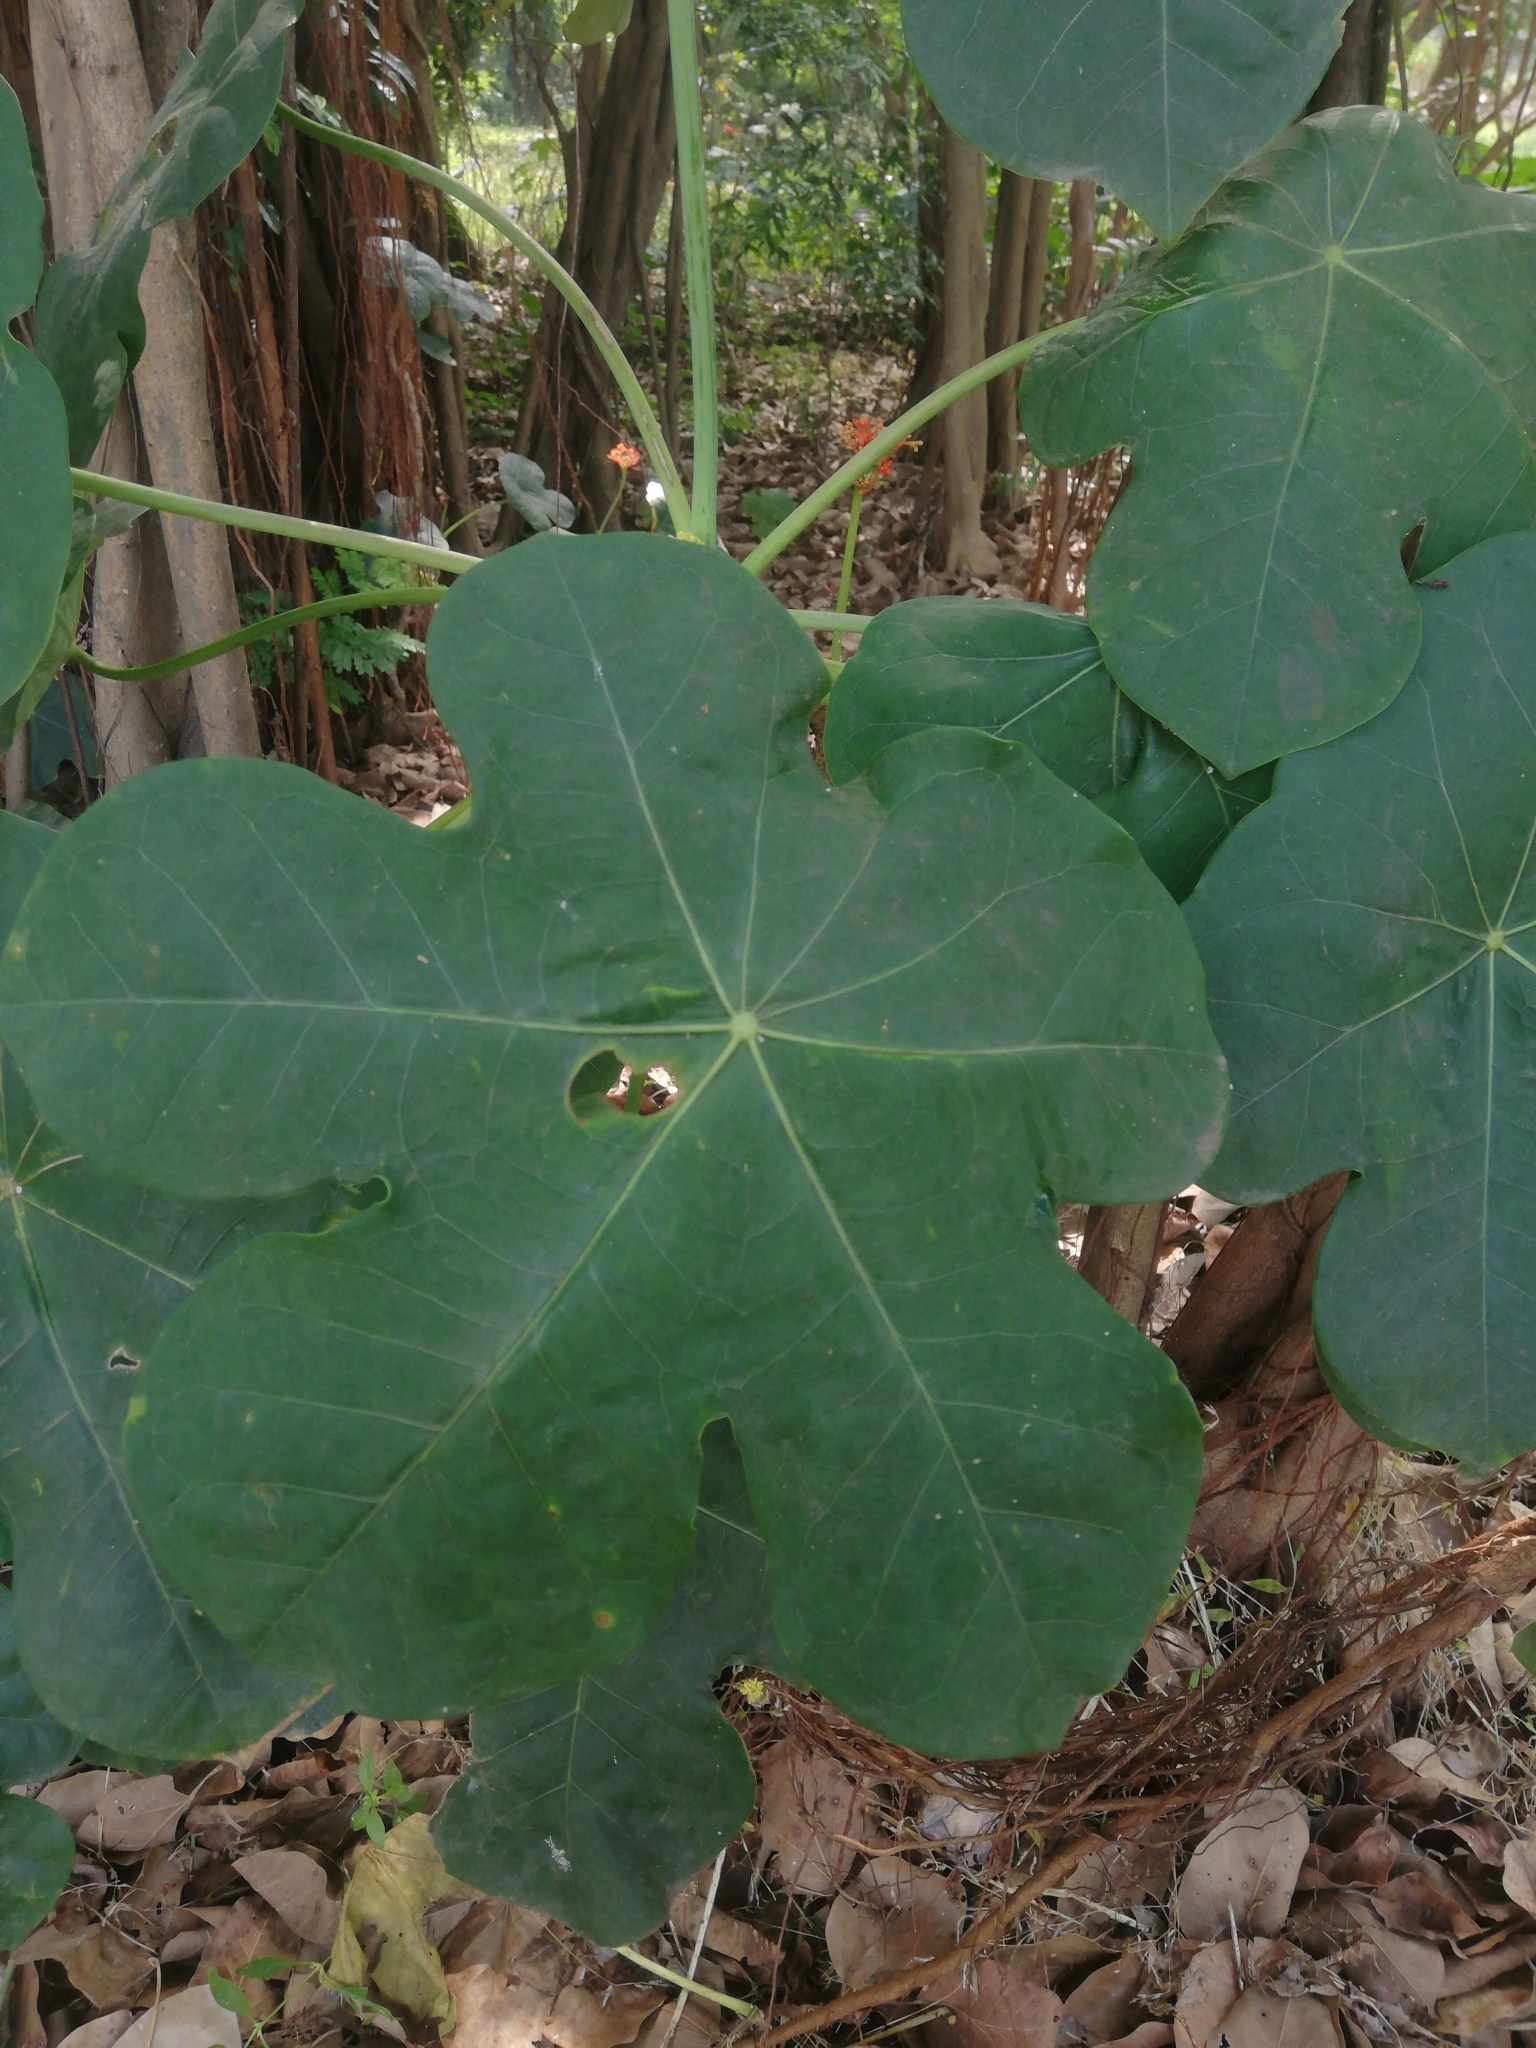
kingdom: Plantae
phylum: Tracheophyta
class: Magnoliopsida
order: Malpighiales
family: Euphorbiaceae
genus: Jatropha
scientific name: Jatropha podagrica
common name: Gout stalk
